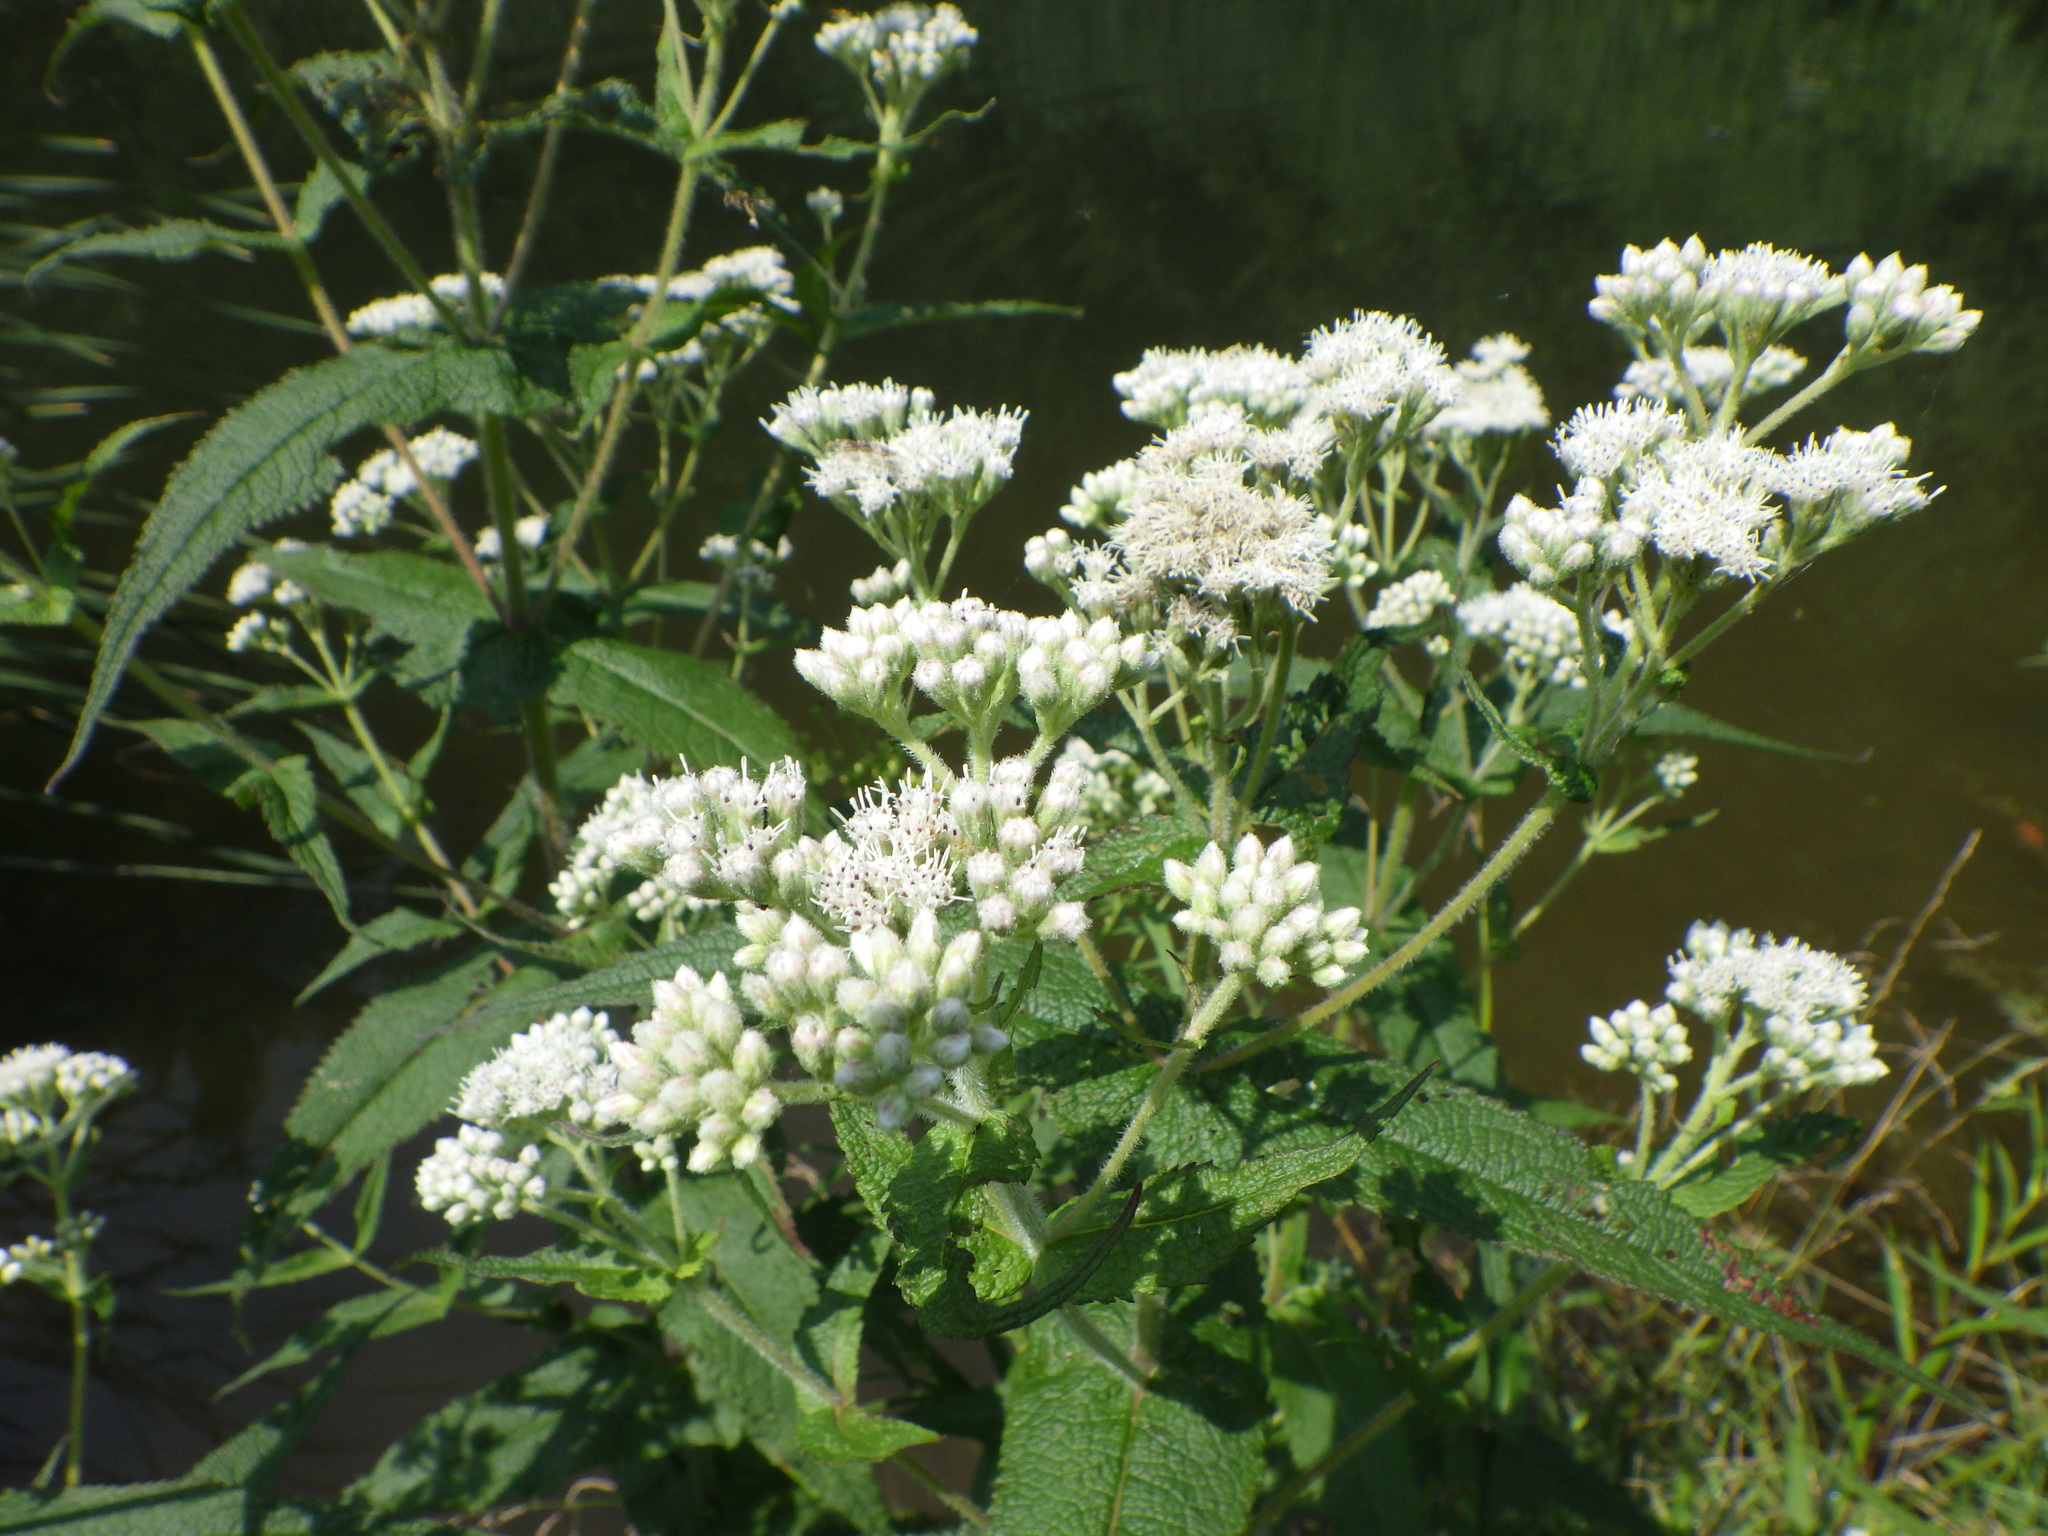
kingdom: Plantae
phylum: Tracheophyta
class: Magnoliopsida
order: Asterales
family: Asteraceae
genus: Eupatorium
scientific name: Eupatorium perfoliatum
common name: Boneset
